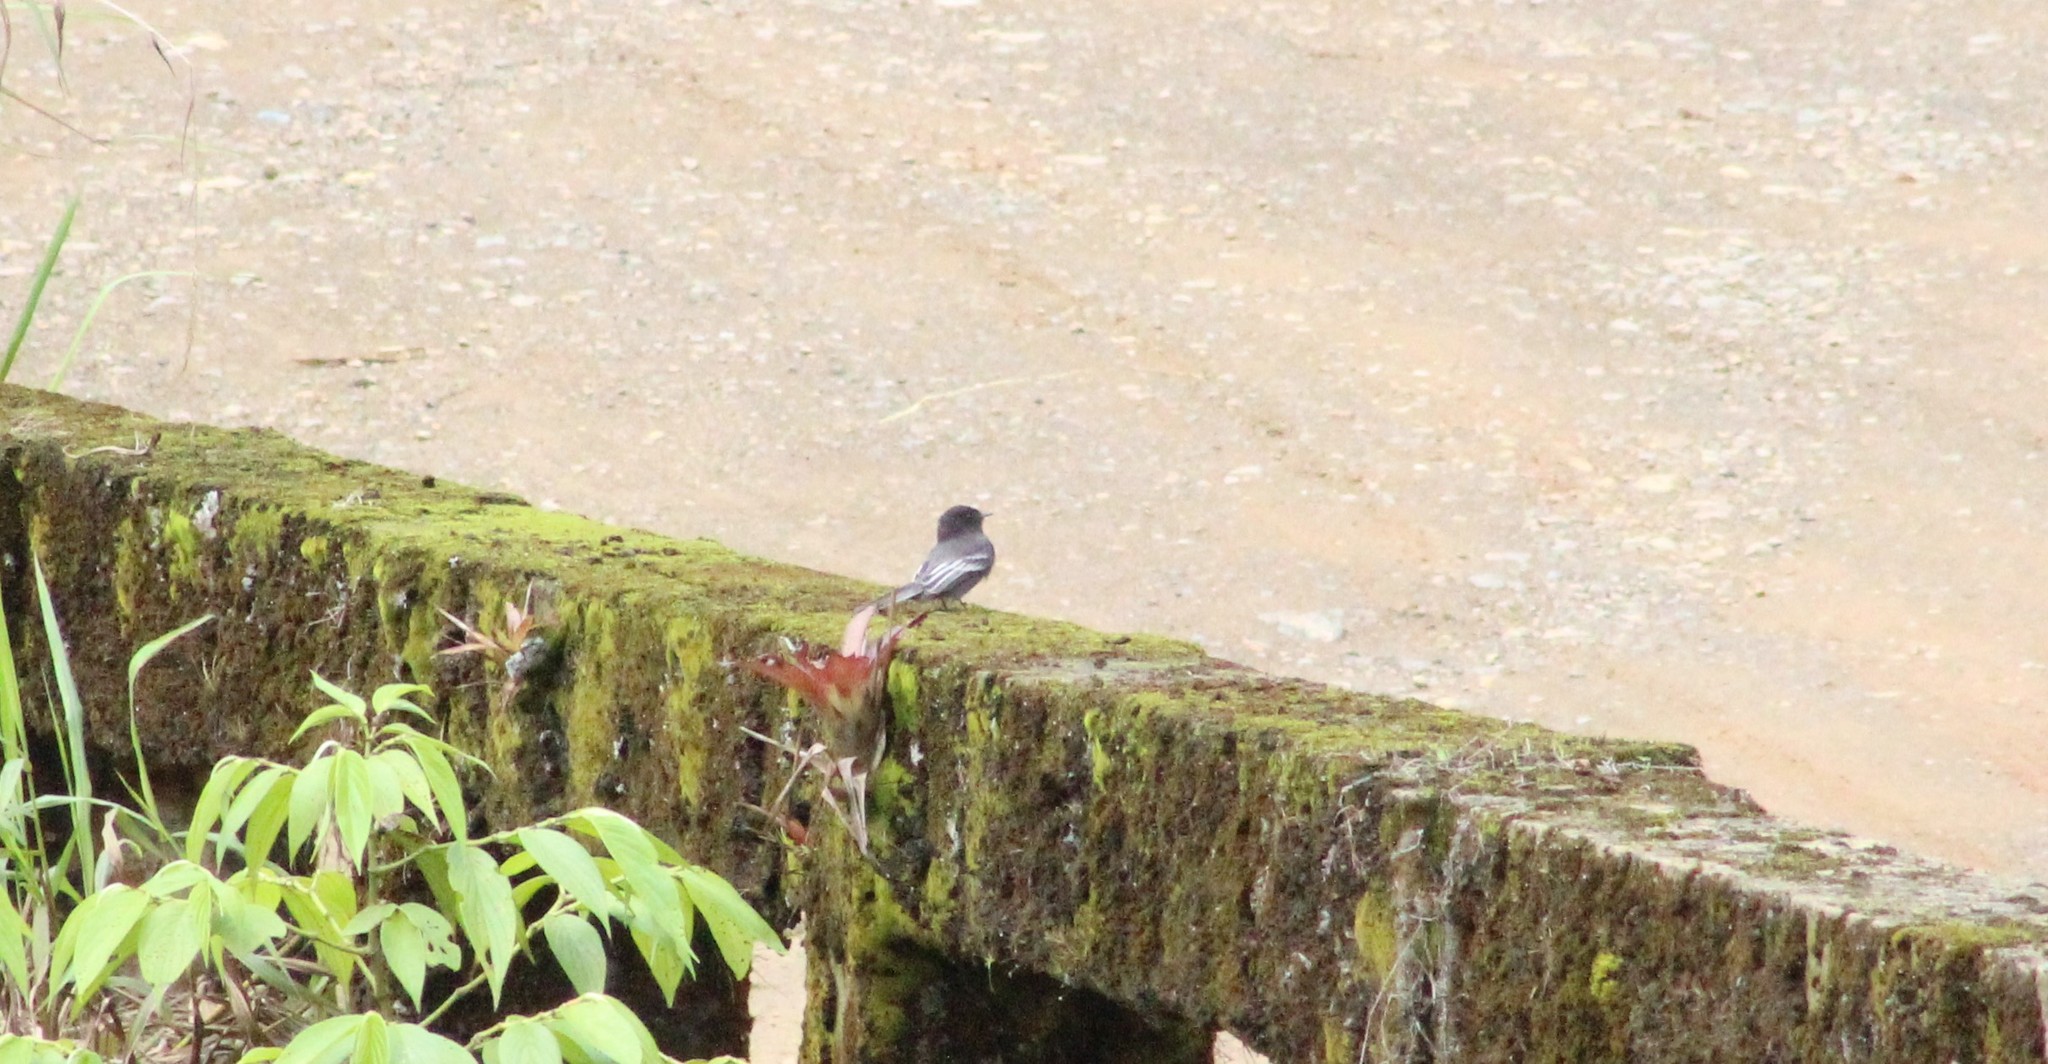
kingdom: Animalia
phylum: Chordata
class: Aves
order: Passeriformes
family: Tyrannidae
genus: Sayornis
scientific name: Sayornis nigricans
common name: Black phoebe
